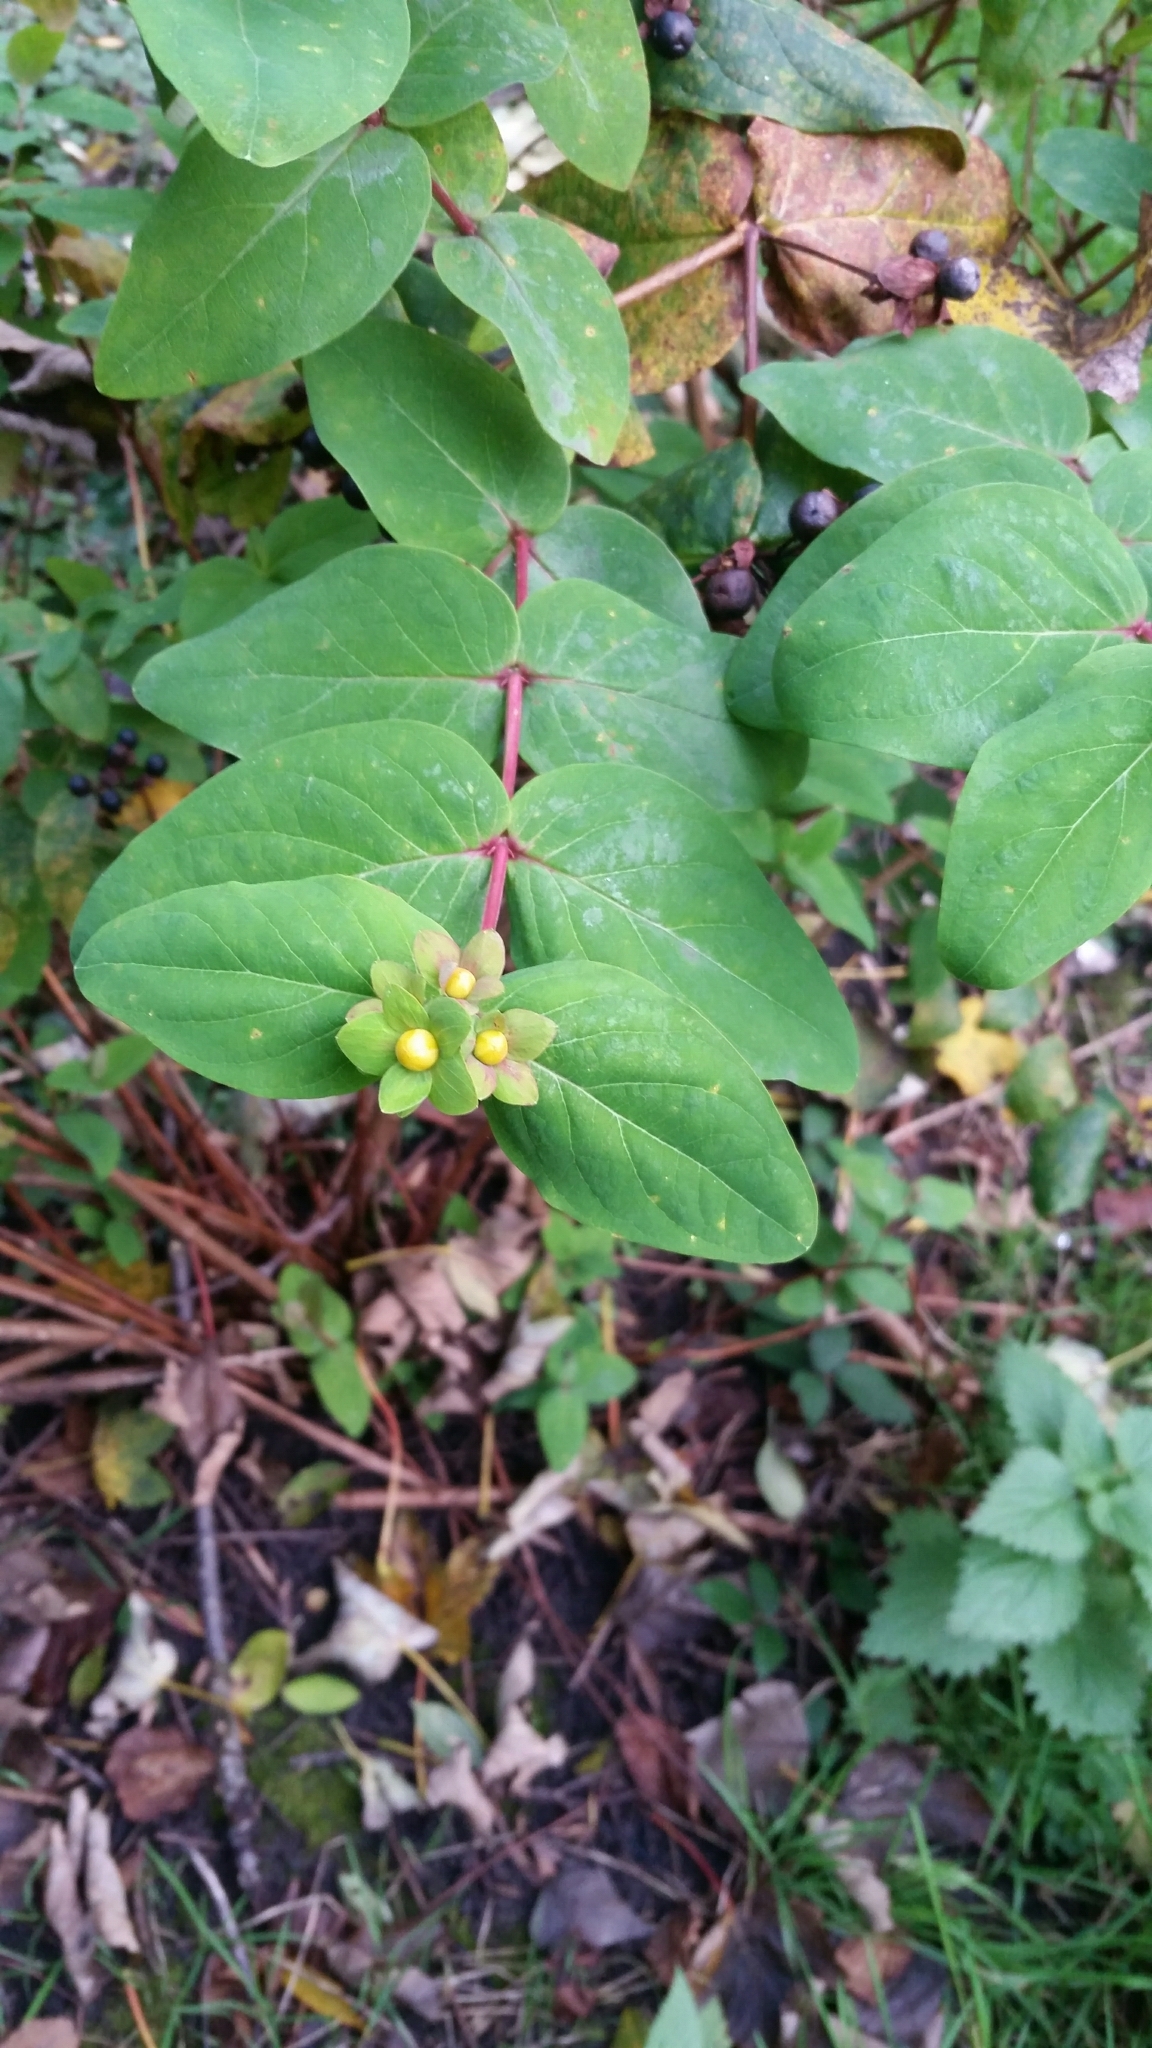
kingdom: Plantae
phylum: Tracheophyta
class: Magnoliopsida
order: Malpighiales
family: Hypericaceae
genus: Hypericum
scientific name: Hypericum androsaemum
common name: Sweet-amber
